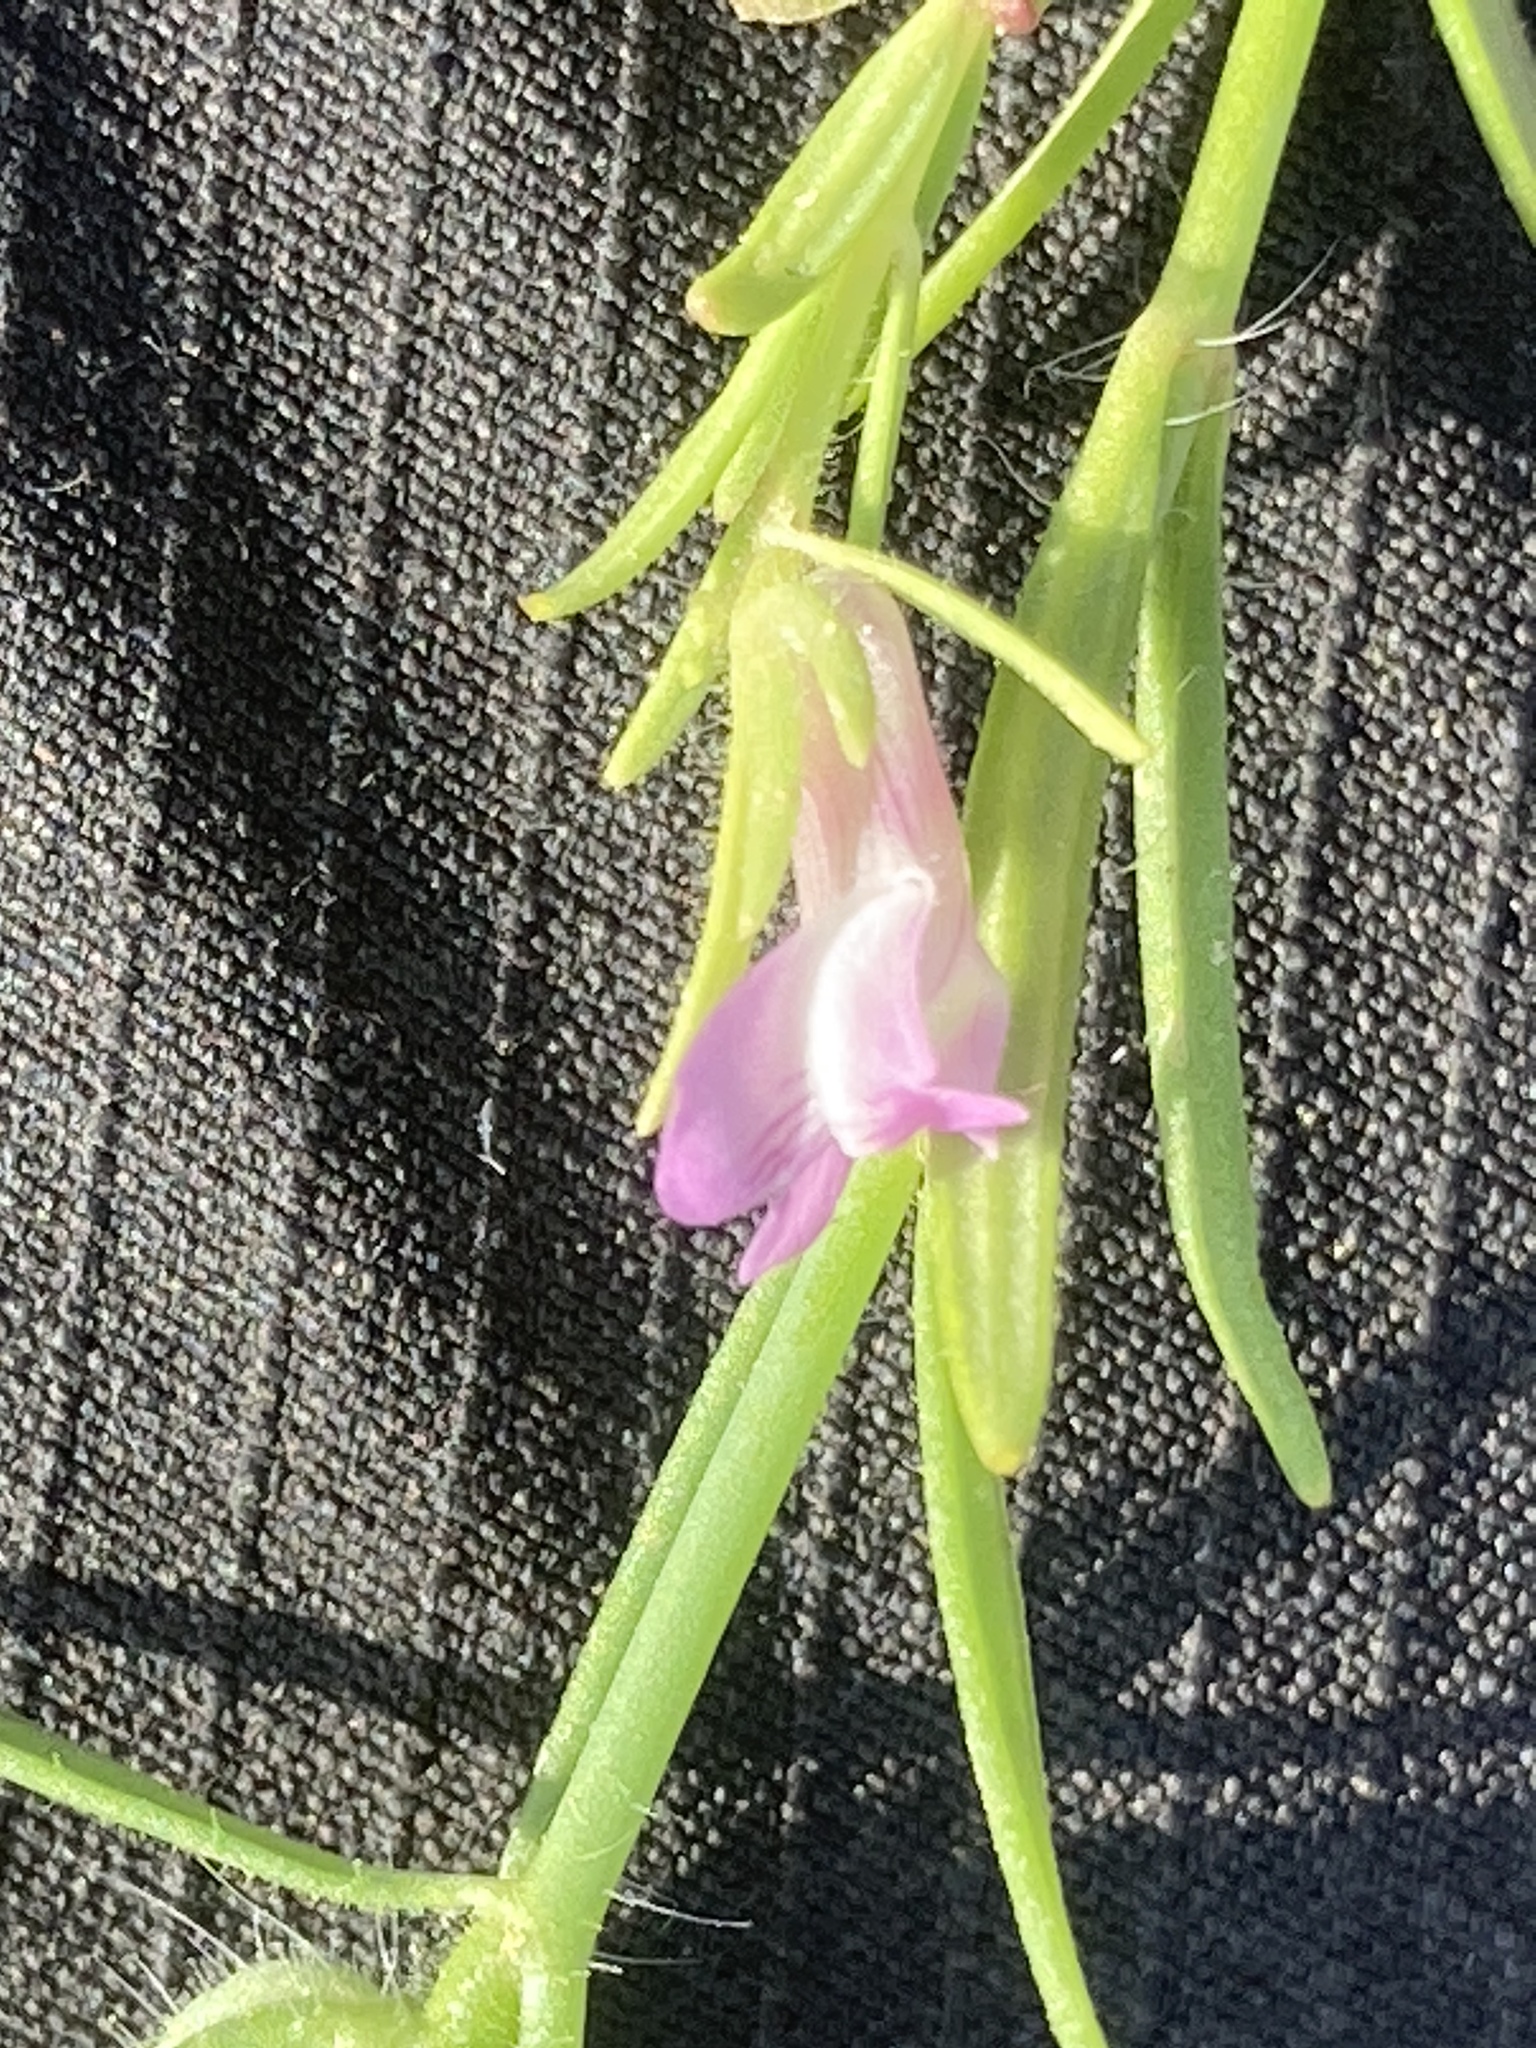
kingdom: Plantae
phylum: Tracheophyta
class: Magnoliopsida
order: Lamiales
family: Plantaginaceae
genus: Misopates
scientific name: Misopates orontium
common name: Weasel's-snout
